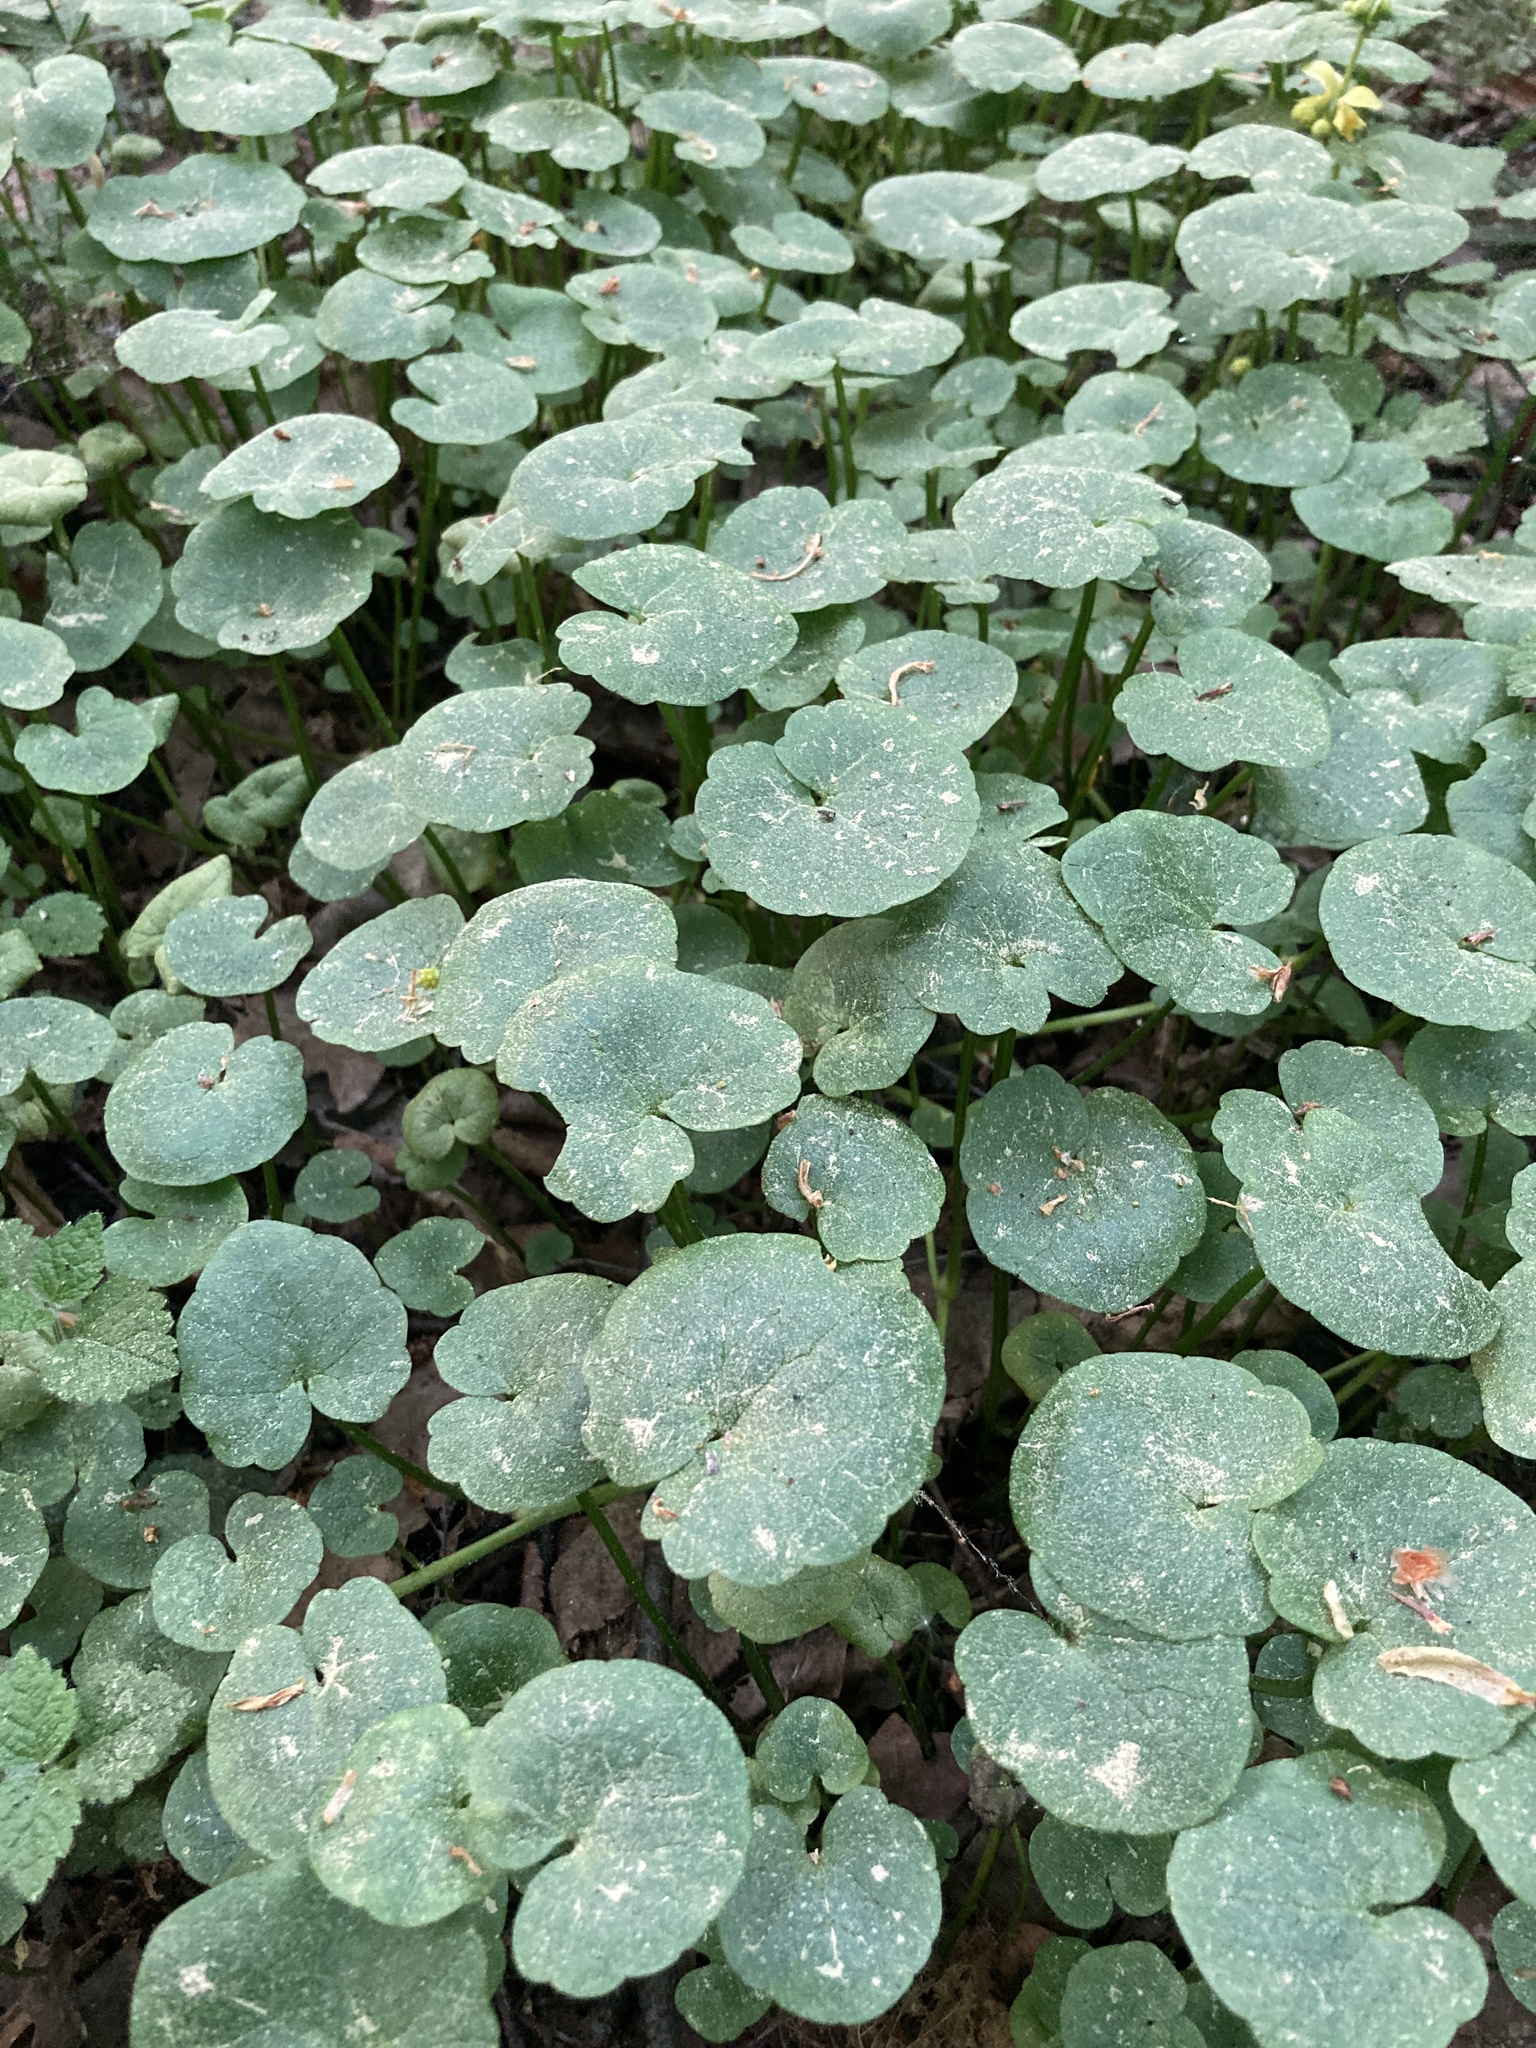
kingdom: Plantae
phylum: Tracheophyta
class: Magnoliopsida
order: Ranunculales
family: Ranunculaceae
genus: Ficaria
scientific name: Ficaria verna
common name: Lesser celandine
